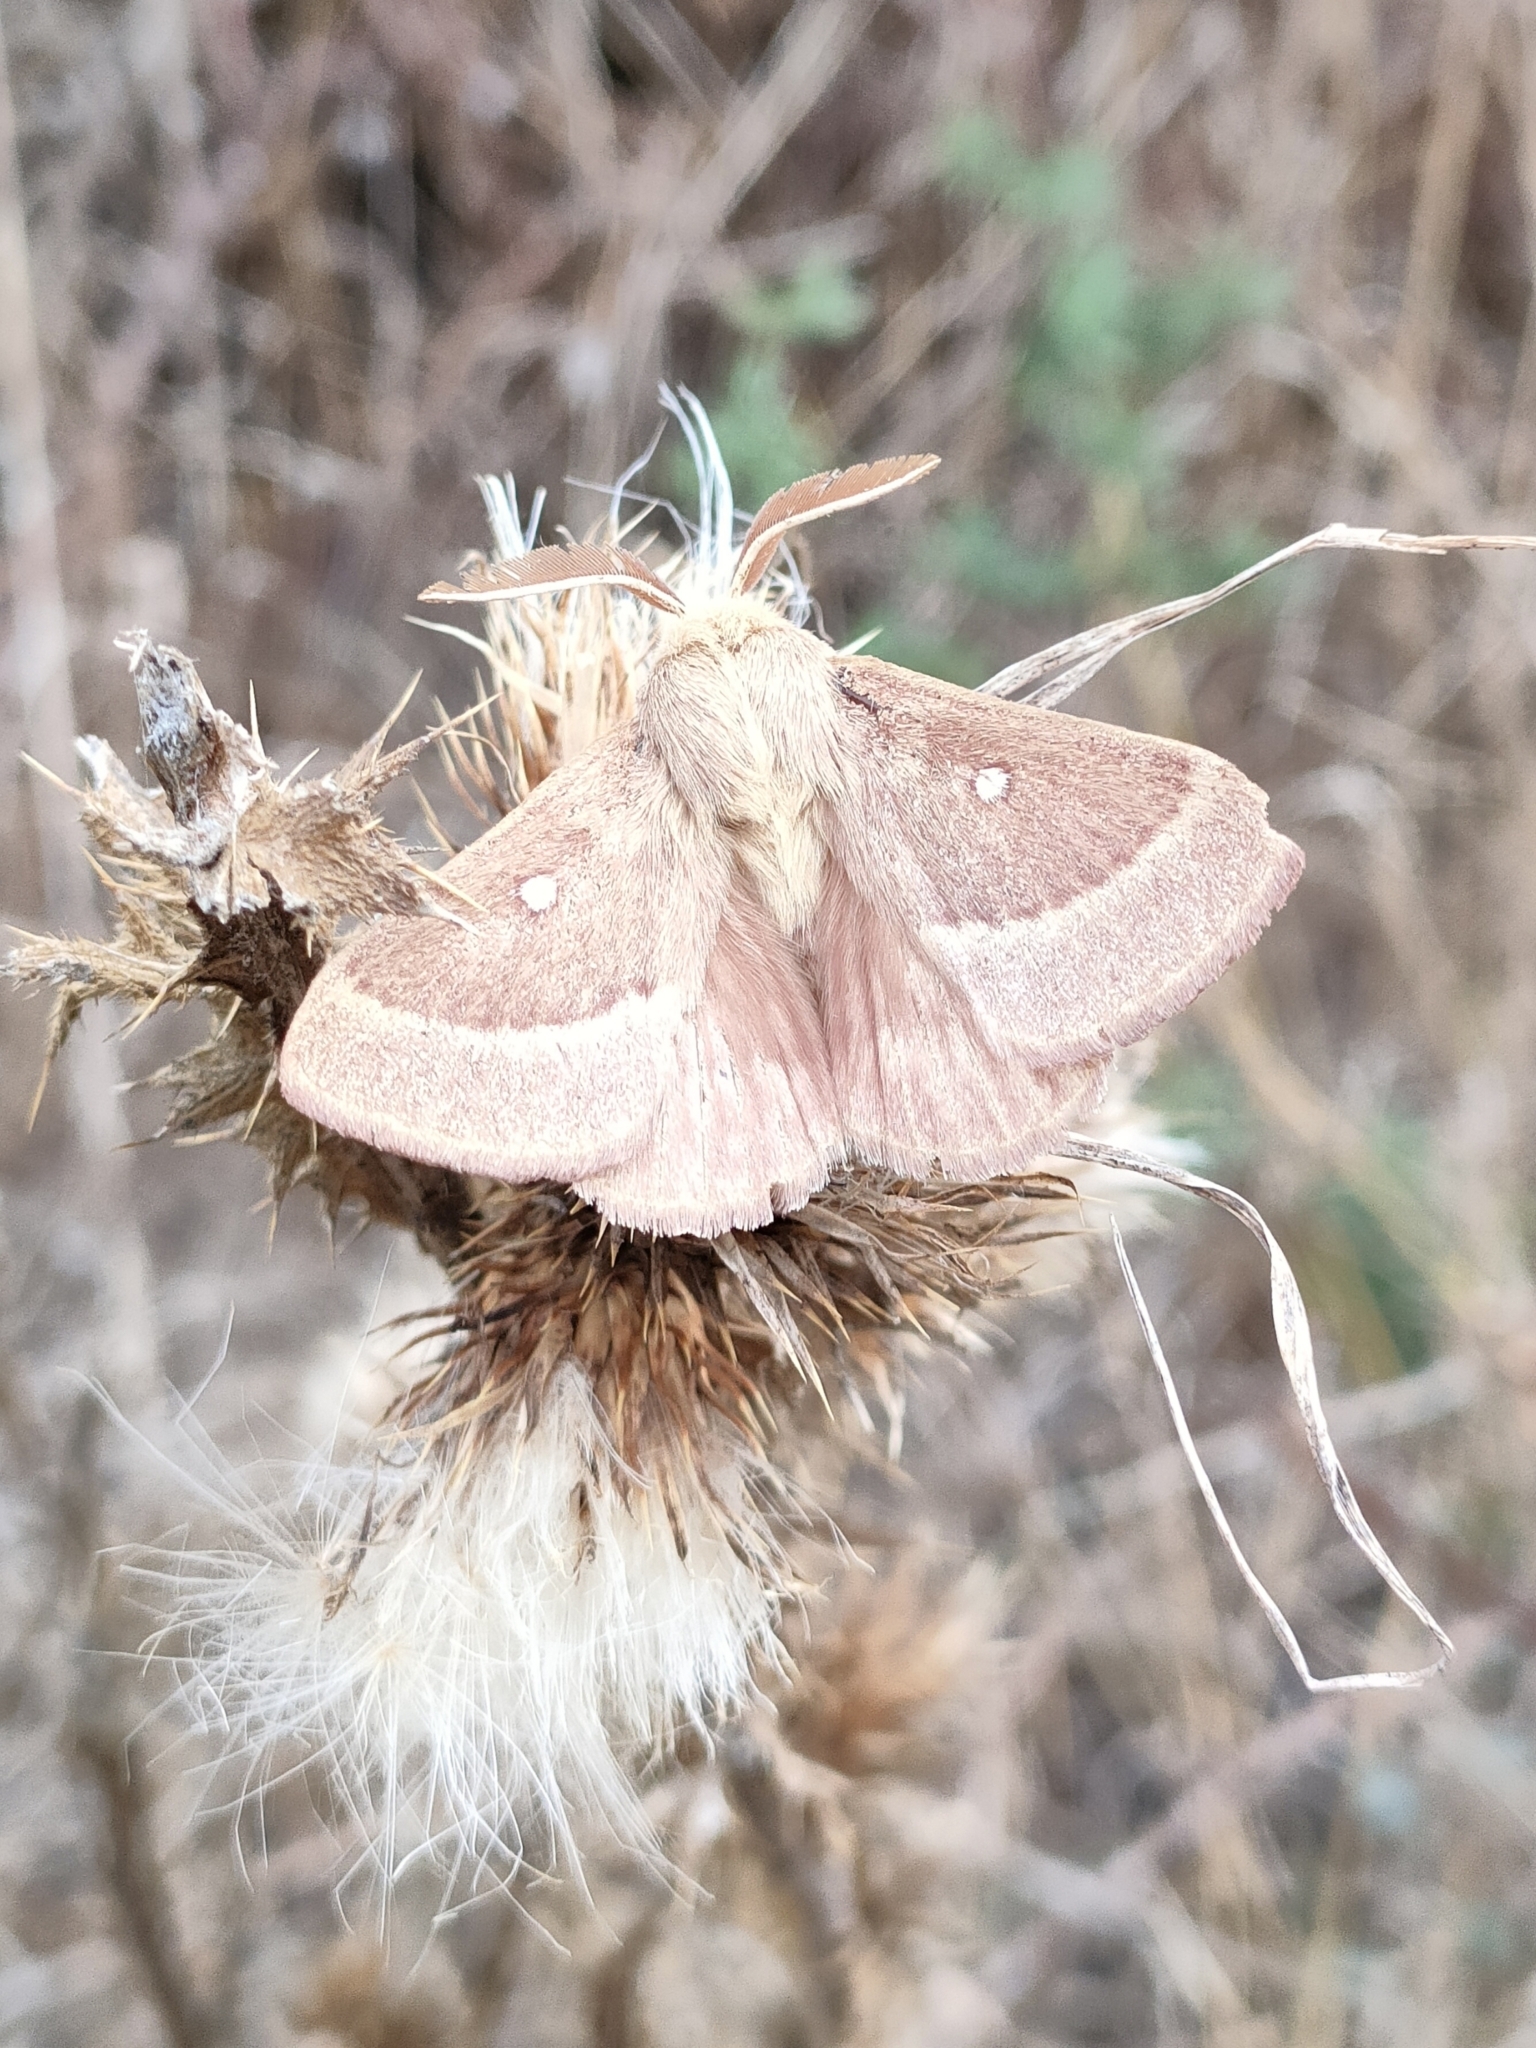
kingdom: Animalia
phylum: Arthropoda
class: Insecta
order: Lepidoptera
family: Lasiocampidae
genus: Lasiocampa
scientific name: Lasiocampa trifolii
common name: Grass eggar
